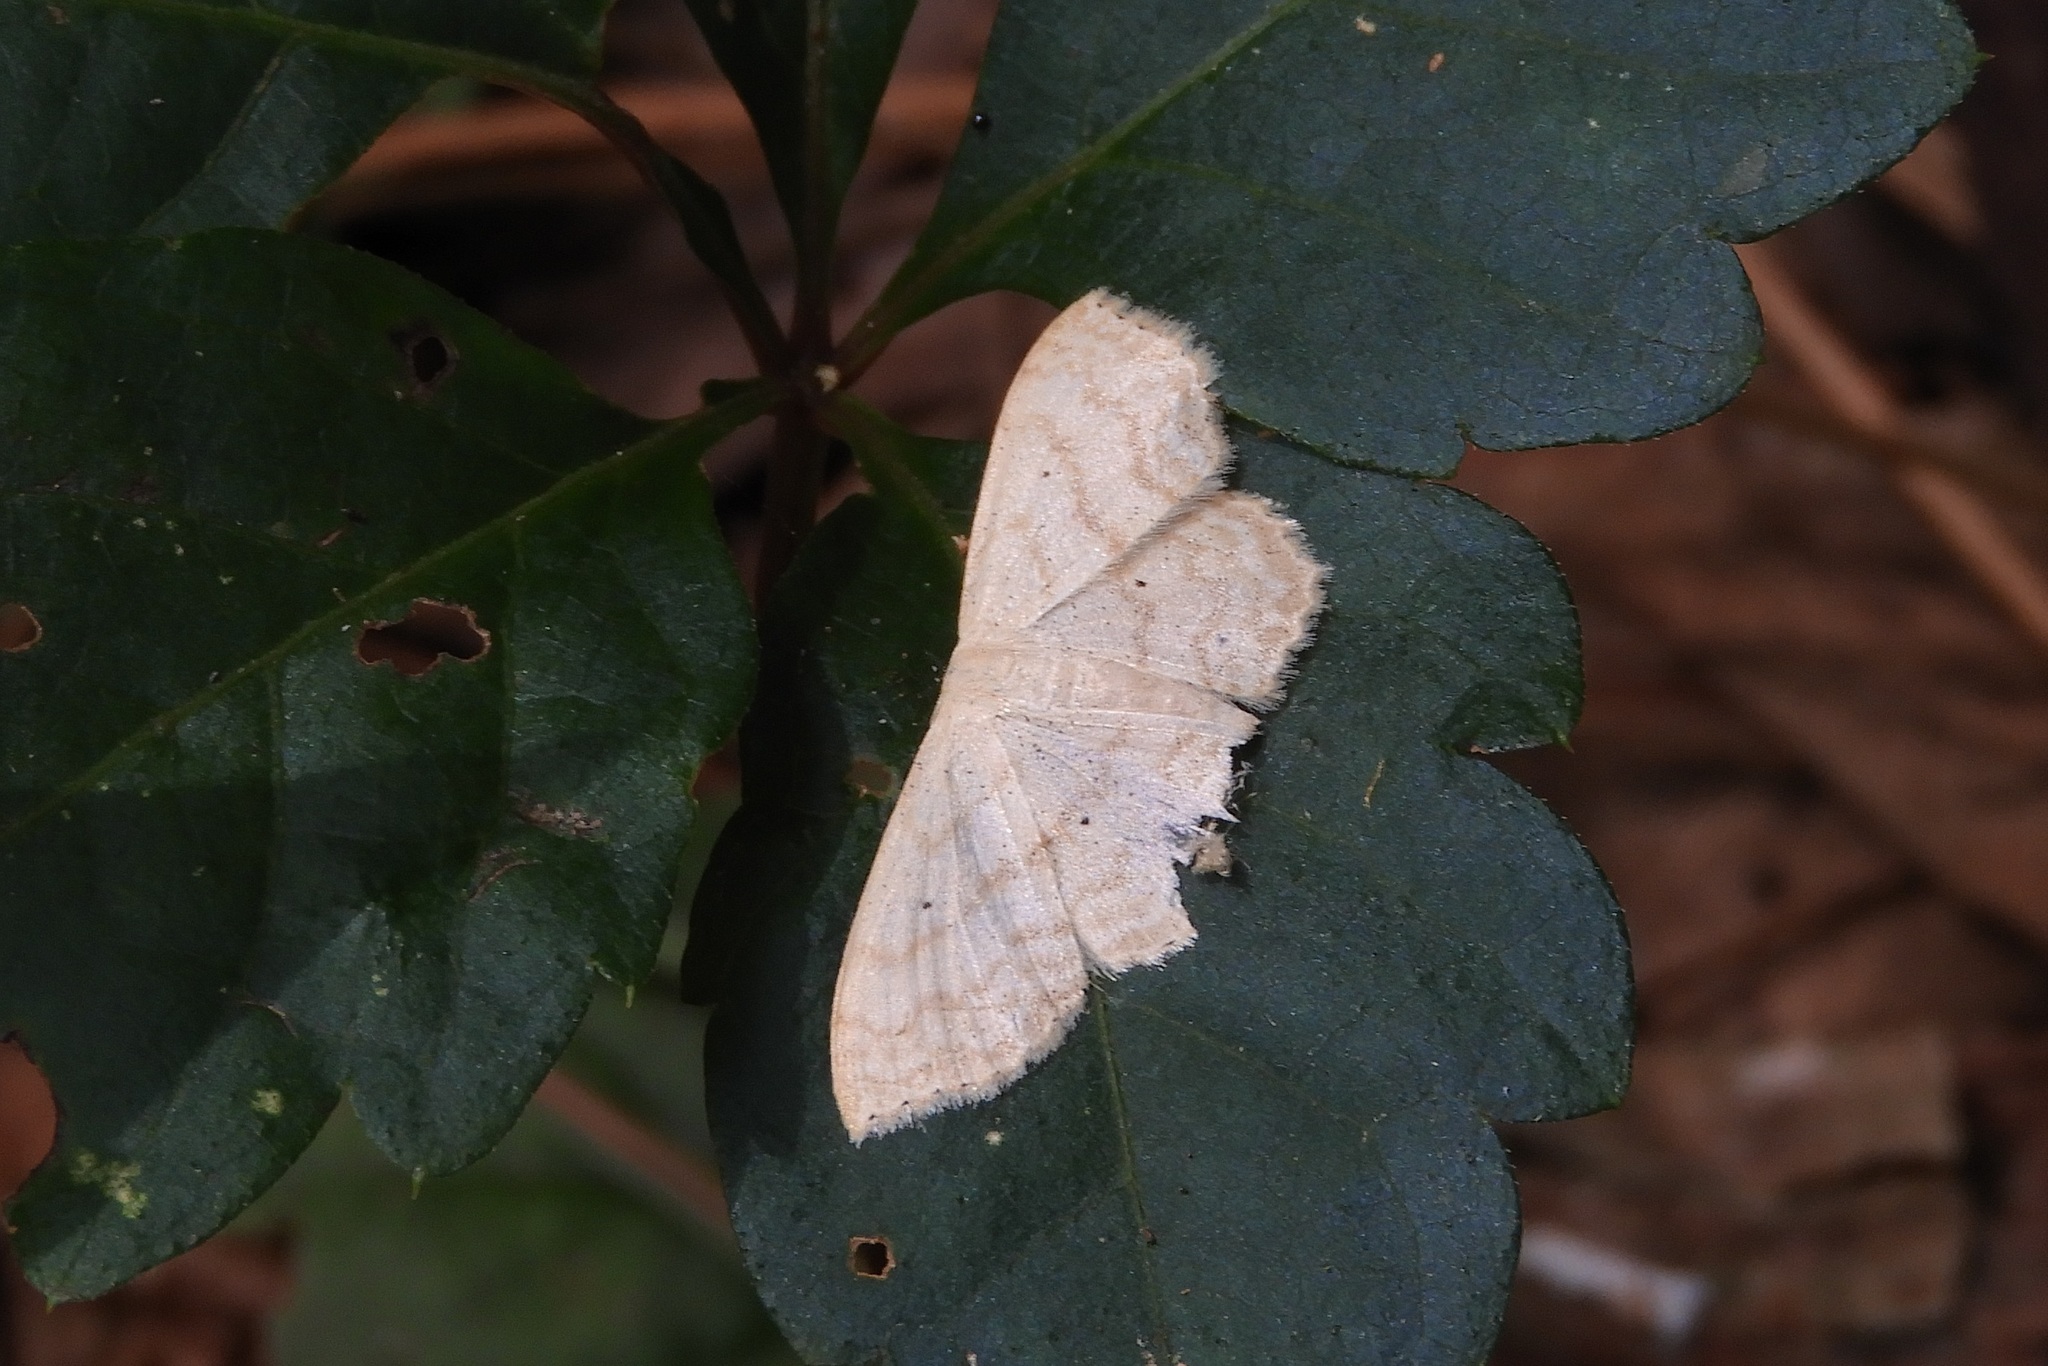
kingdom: Animalia
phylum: Arthropoda
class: Insecta
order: Lepidoptera
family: Geometridae
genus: Scopula
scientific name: Scopula limboundata
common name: Large lace border
